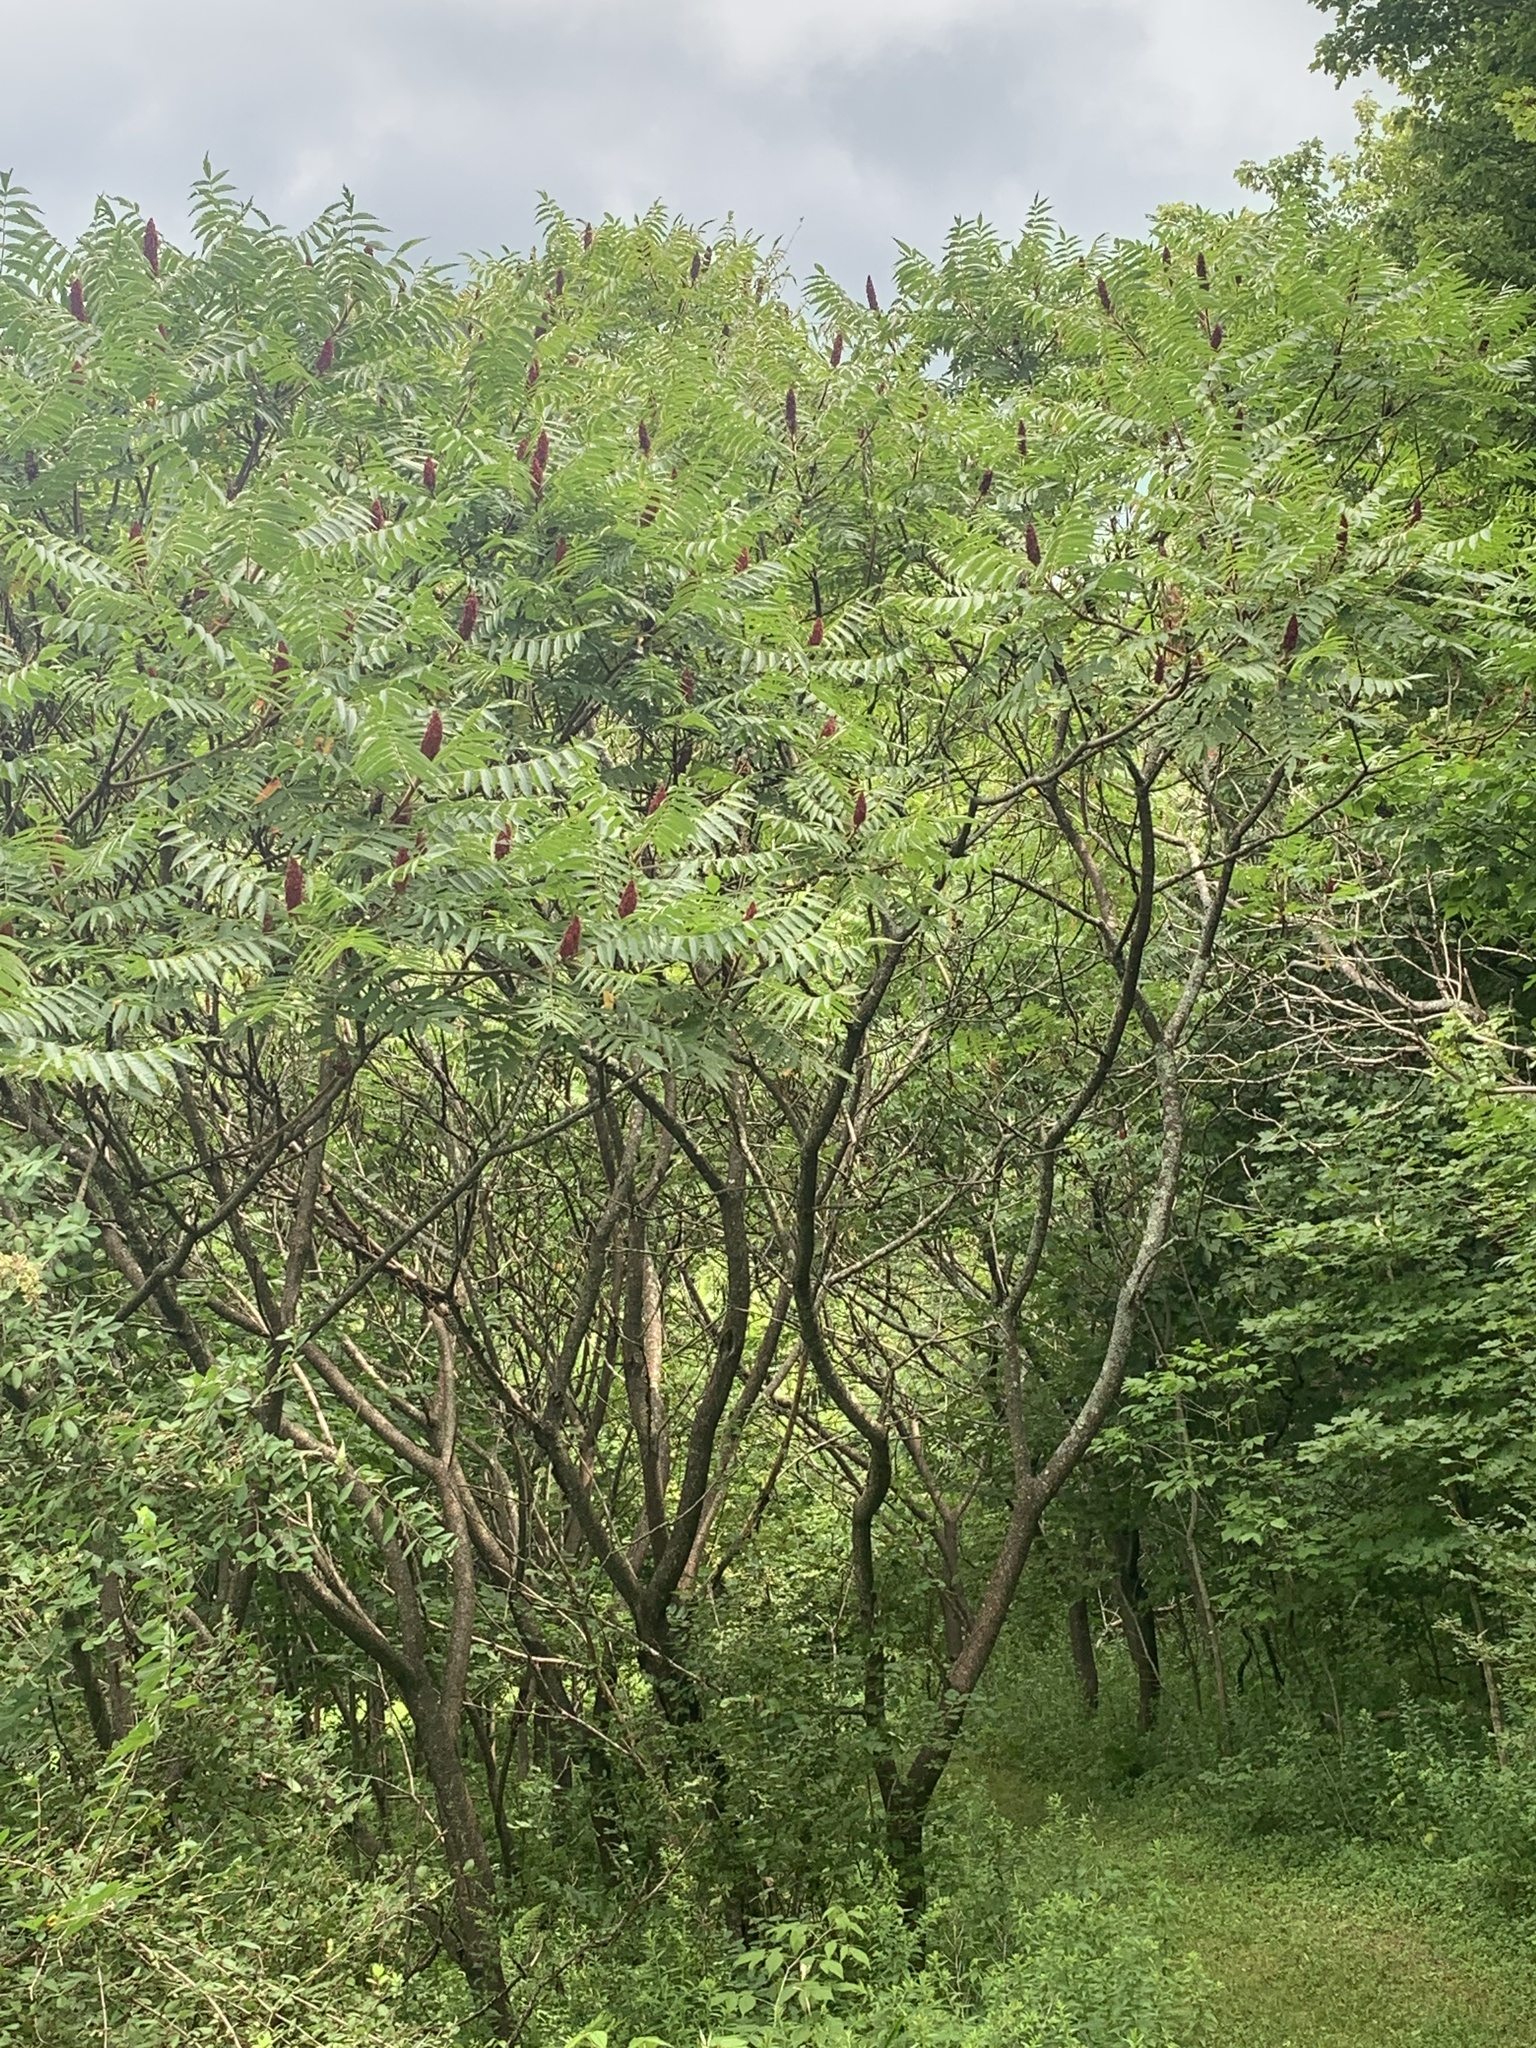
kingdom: Plantae
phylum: Tracheophyta
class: Magnoliopsida
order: Sapindales
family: Anacardiaceae
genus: Rhus
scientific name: Rhus typhina
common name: Staghorn sumac
